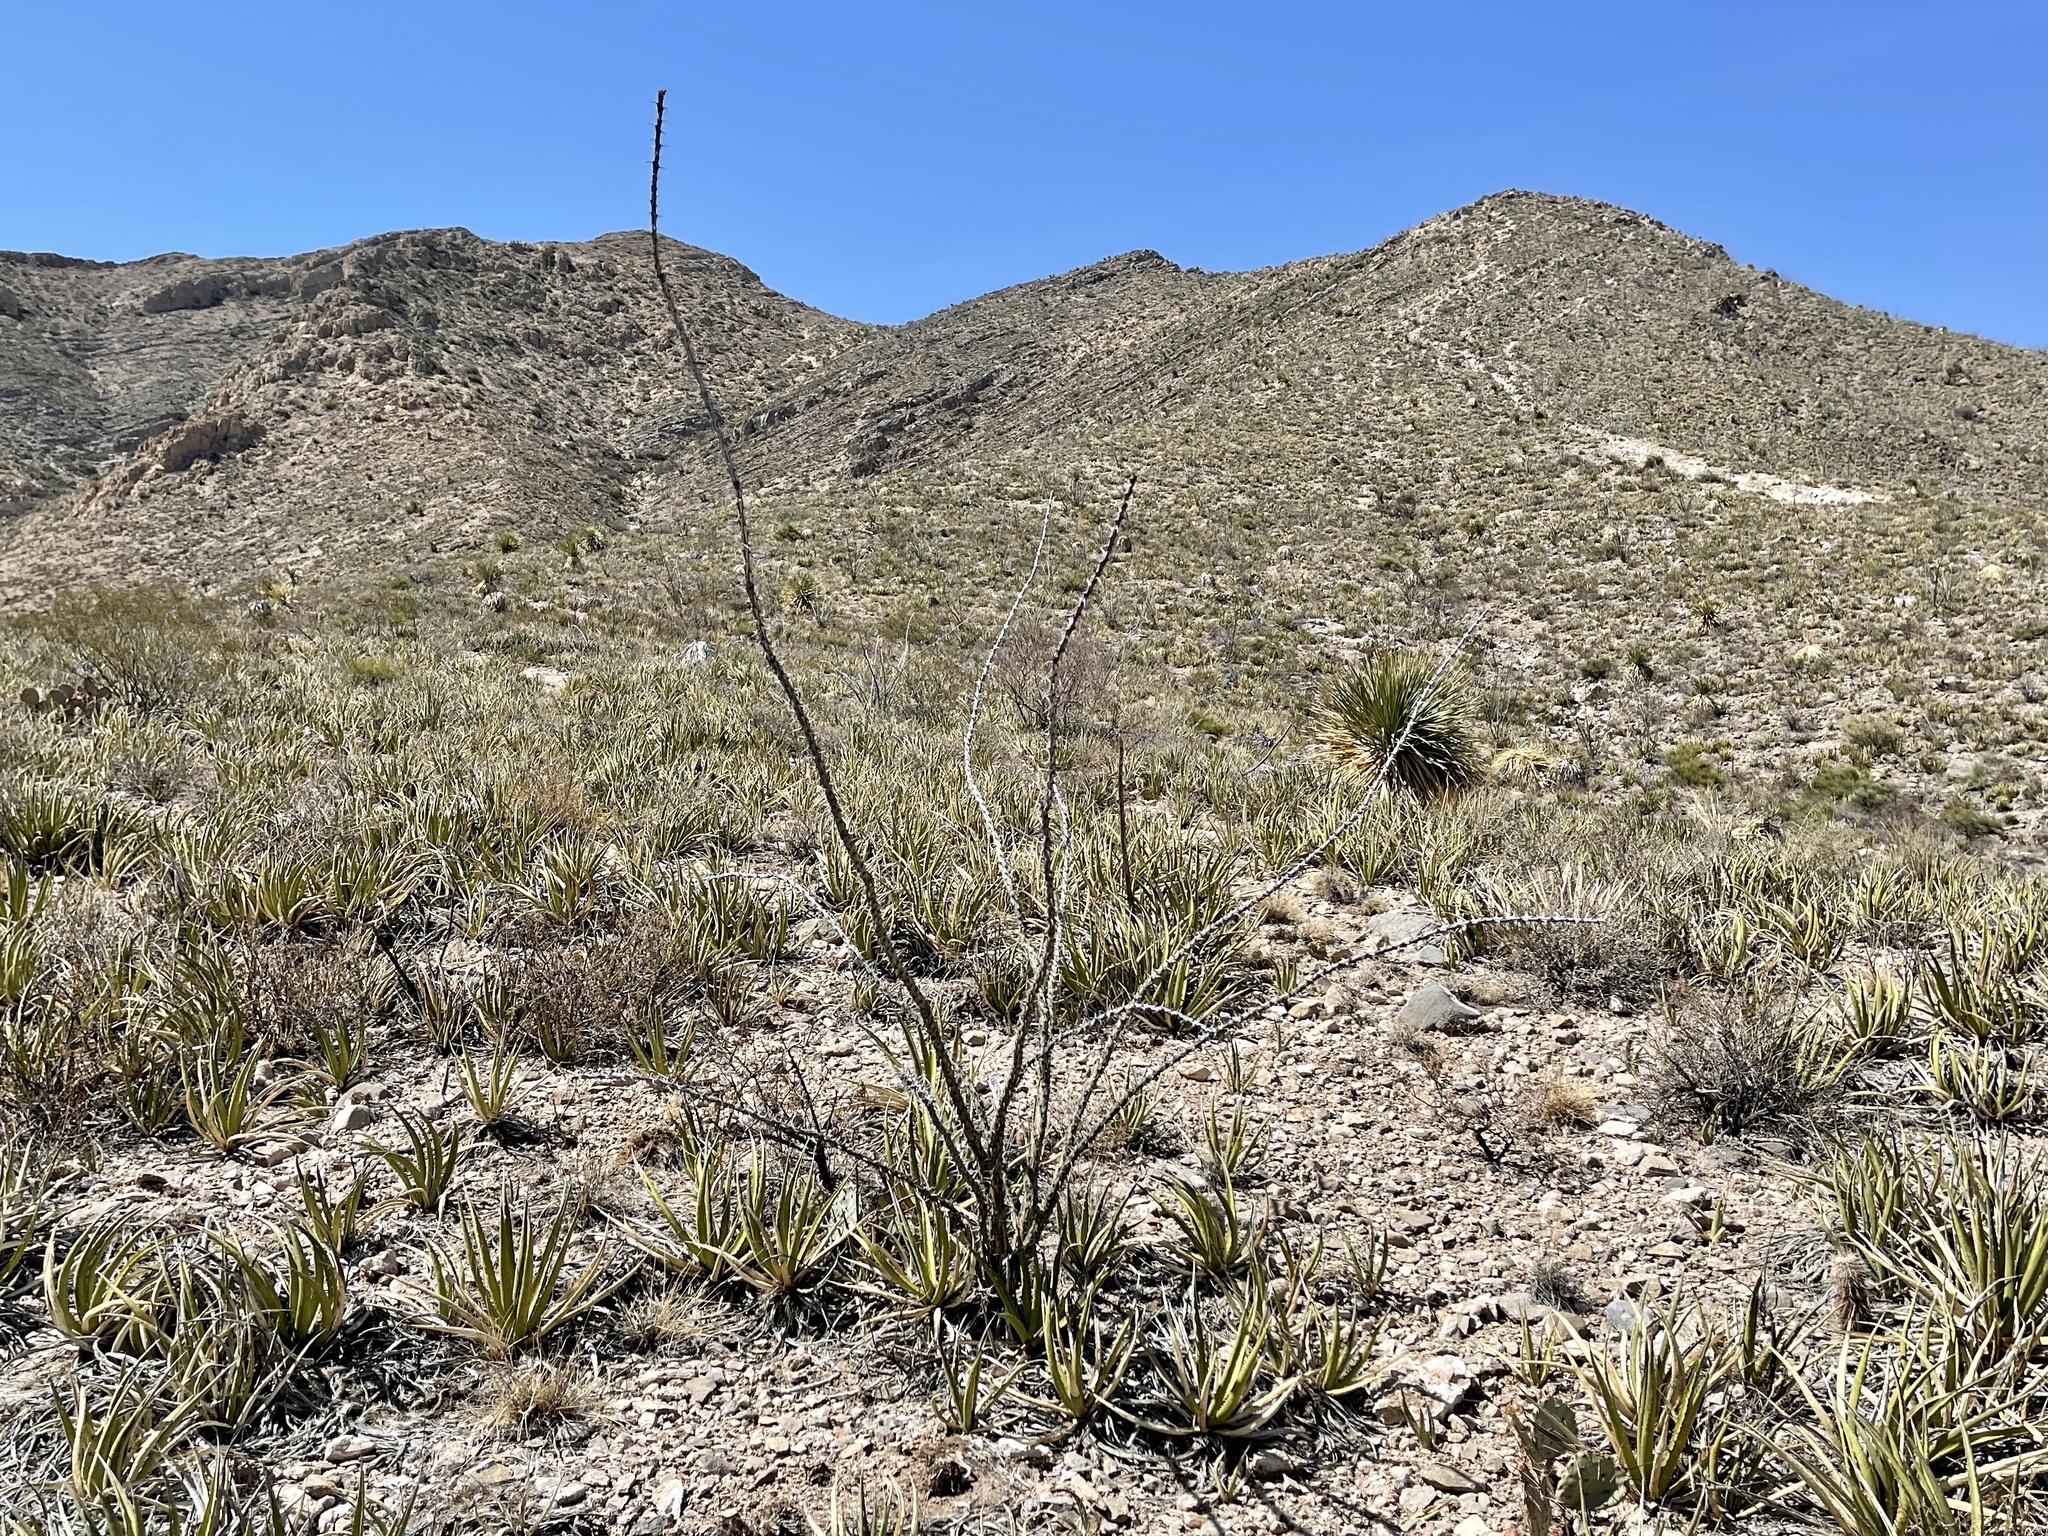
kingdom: Plantae
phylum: Tracheophyta
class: Magnoliopsida
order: Ericales
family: Fouquieriaceae
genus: Fouquieria
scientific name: Fouquieria splendens
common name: Vine-cactus
